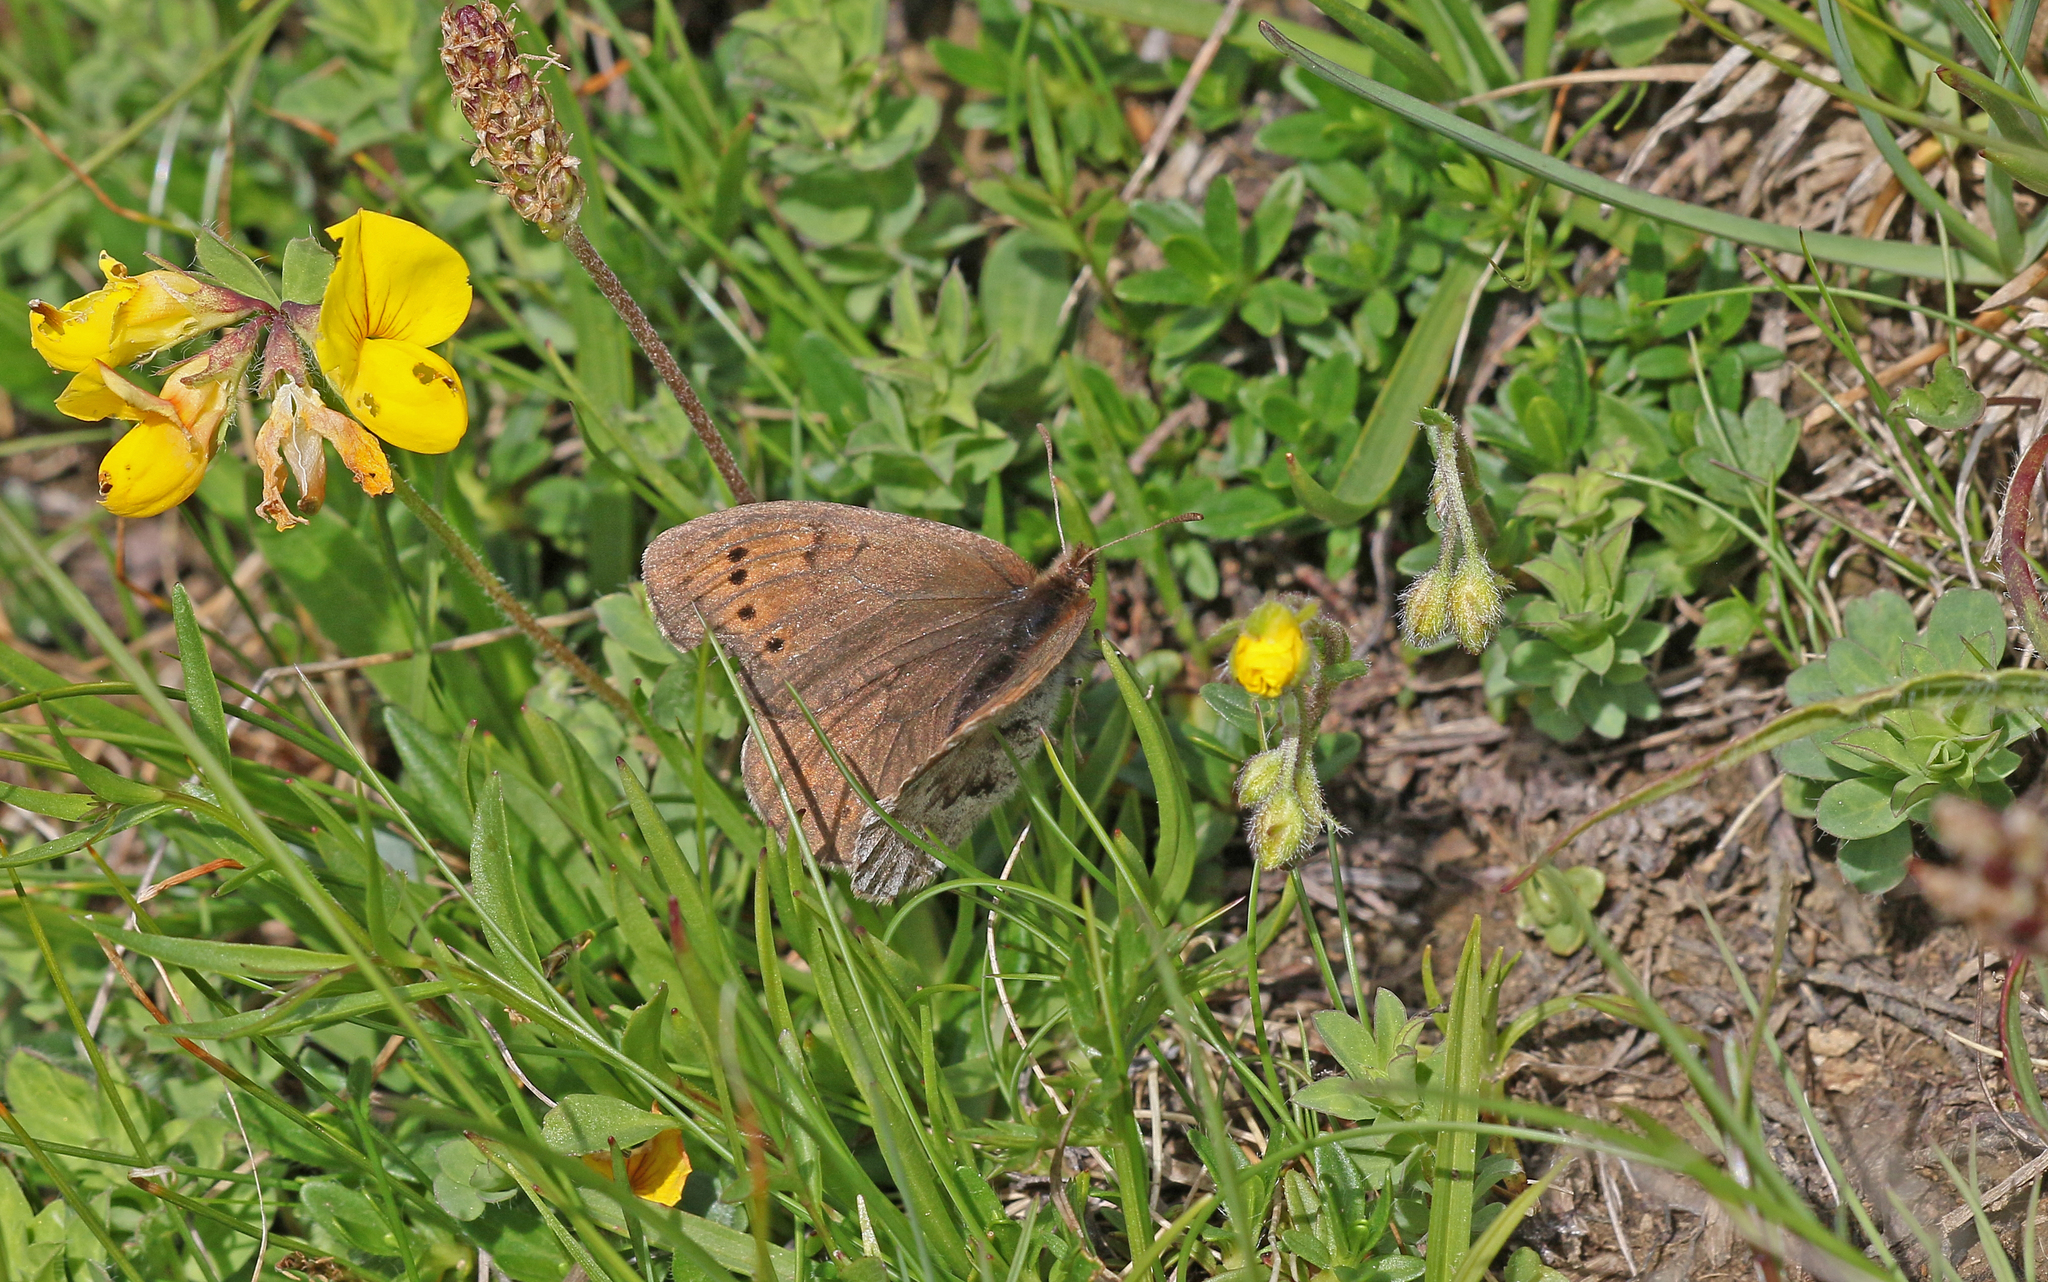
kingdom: Animalia
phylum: Arthropoda
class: Insecta
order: Lepidoptera
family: Nymphalidae
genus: Erebia
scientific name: Erebia pandrose
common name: Dewy ringlet
